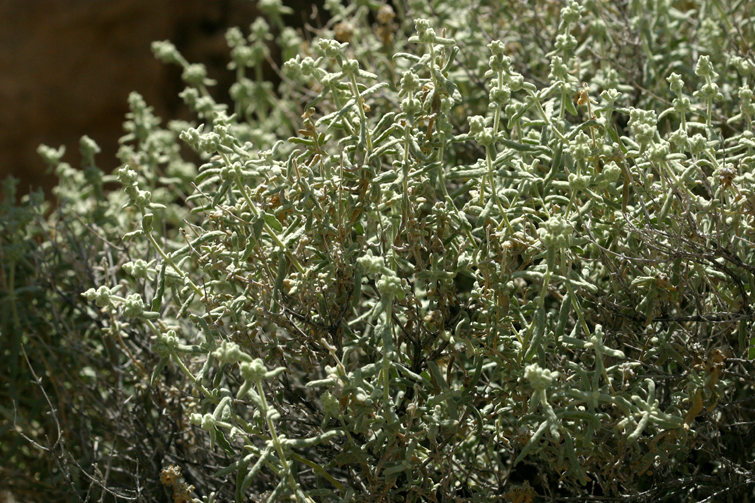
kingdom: Plantae
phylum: Tracheophyta
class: Magnoliopsida
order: Lamiales
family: Scrophulariaceae
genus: Buddleja
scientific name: Buddleja utahensis
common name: Utah butterfly-bush
